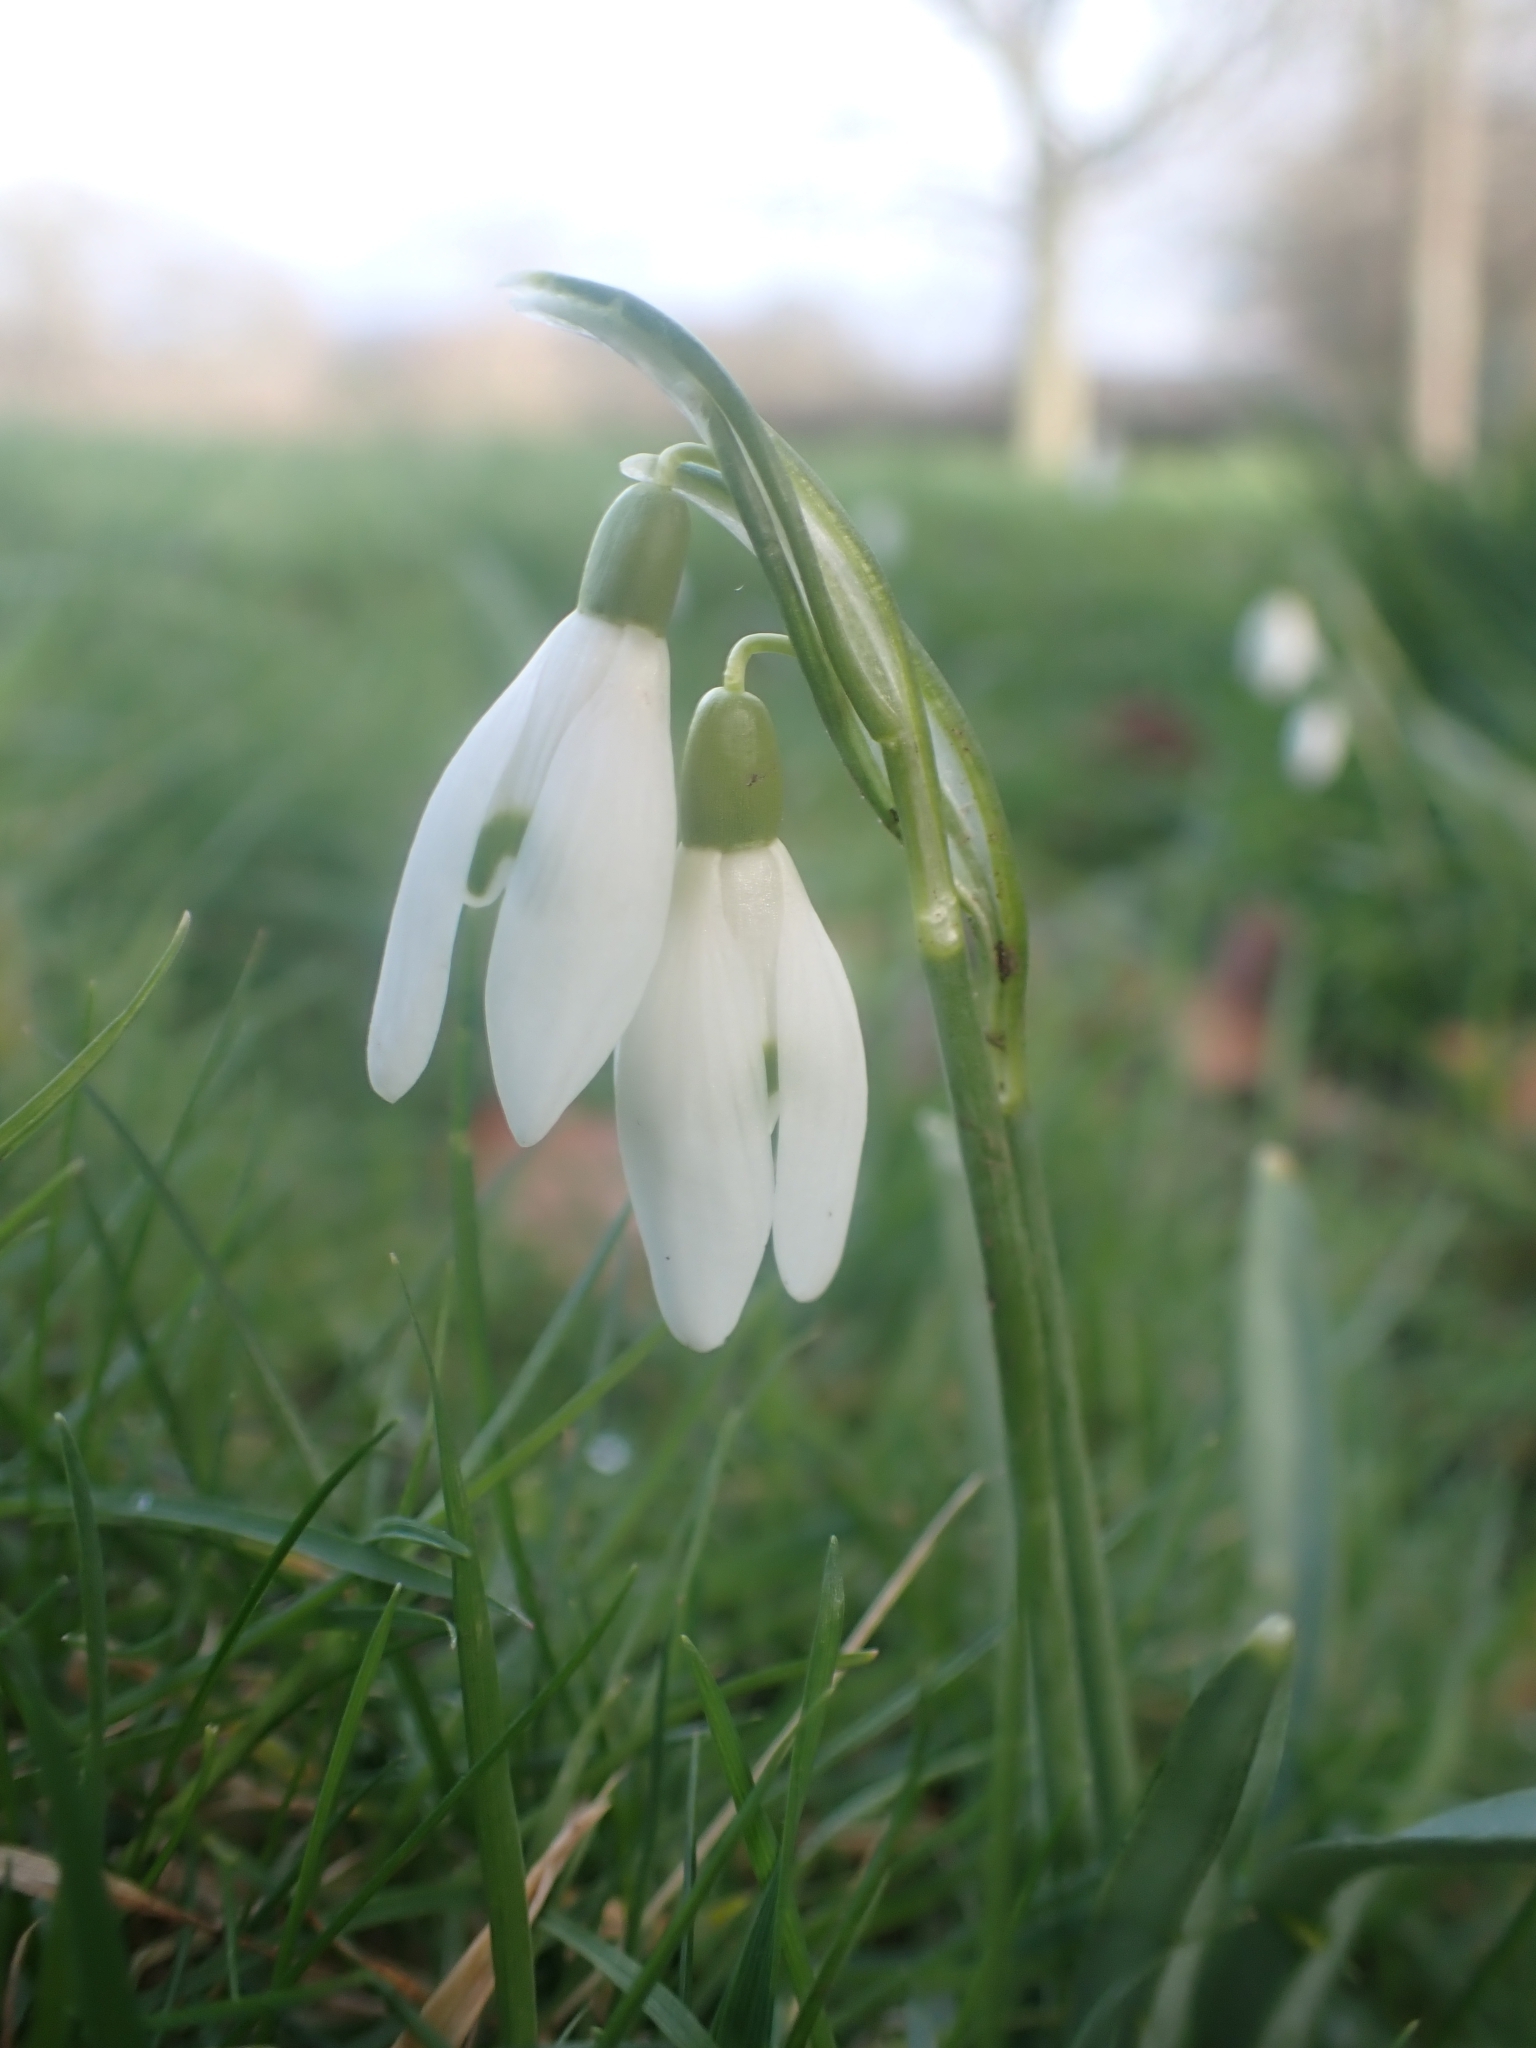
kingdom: Plantae
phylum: Tracheophyta
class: Liliopsida
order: Asparagales
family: Amaryllidaceae
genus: Galanthus
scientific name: Galanthus nivalis
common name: Snowdrop
